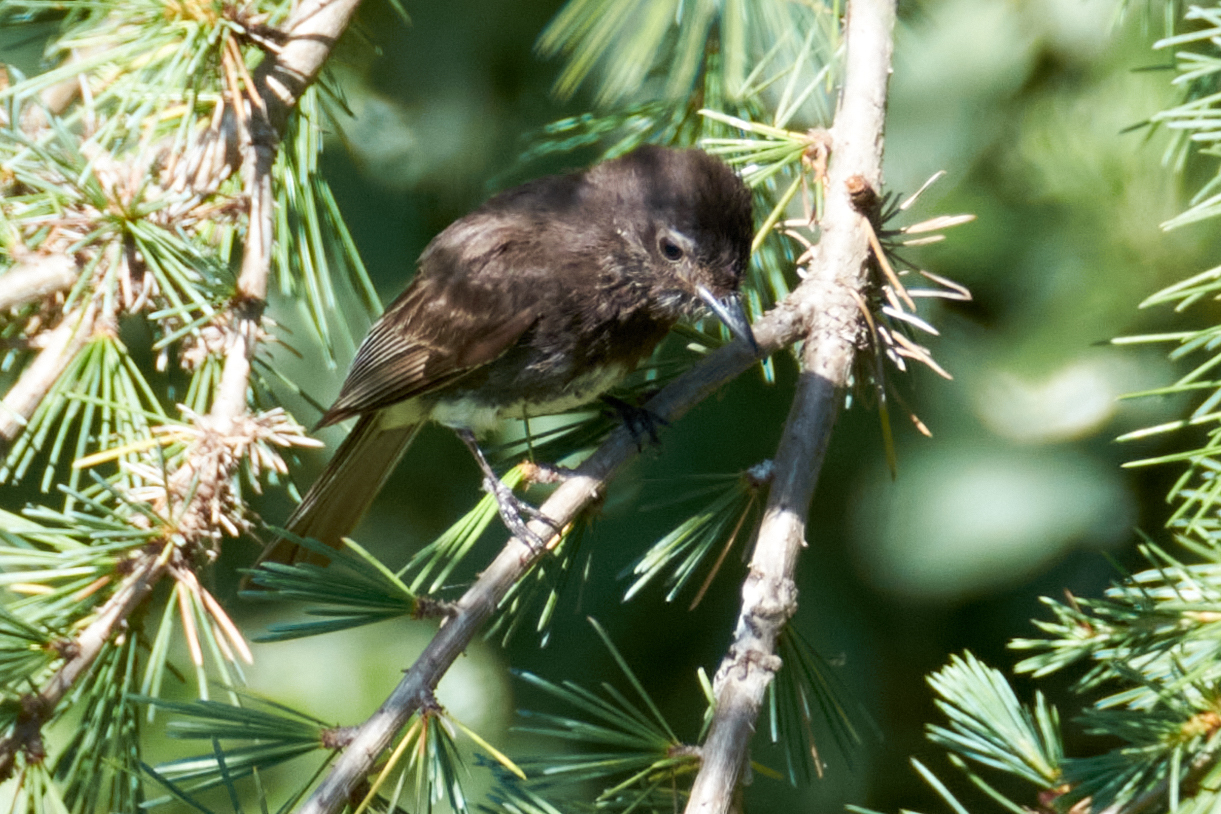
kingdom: Animalia
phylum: Chordata
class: Aves
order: Passeriformes
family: Tyrannidae
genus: Sayornis
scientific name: Sayornis nigricans
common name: Black phoebe
